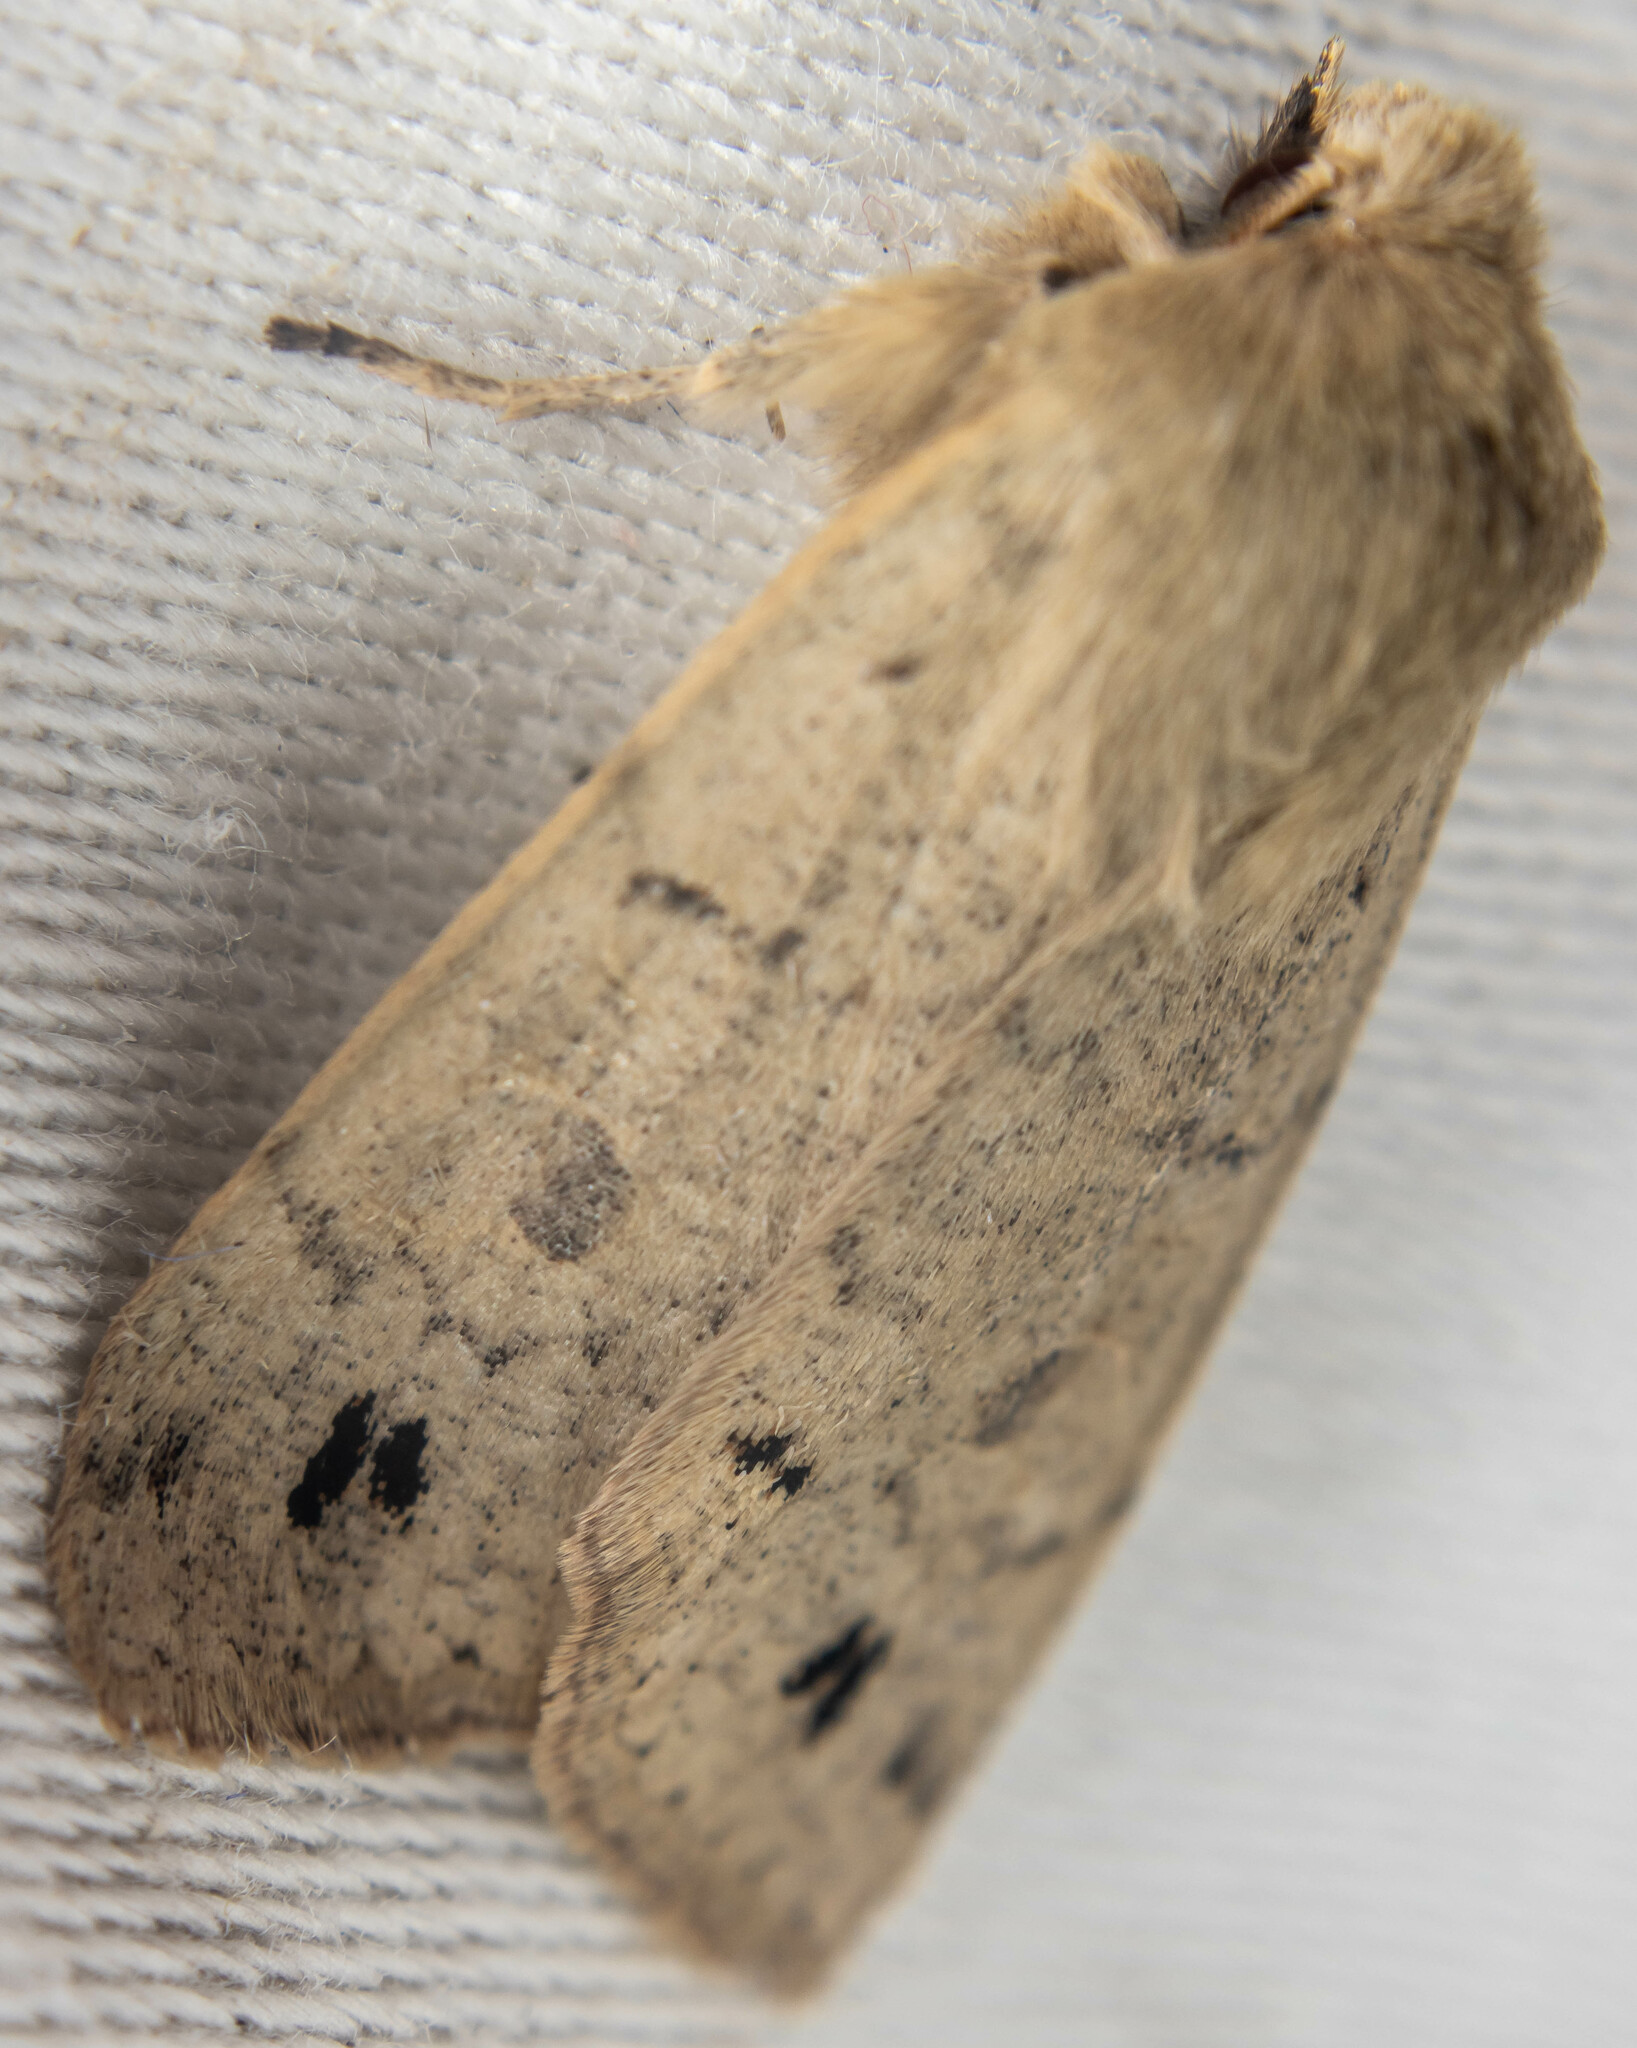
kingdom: Animalia
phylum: Arthropoda
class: Insecta
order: Lepidoptera
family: Noctuidae
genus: Anorthoa
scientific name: Anorthoa munda
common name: Twin-spotted quaker
